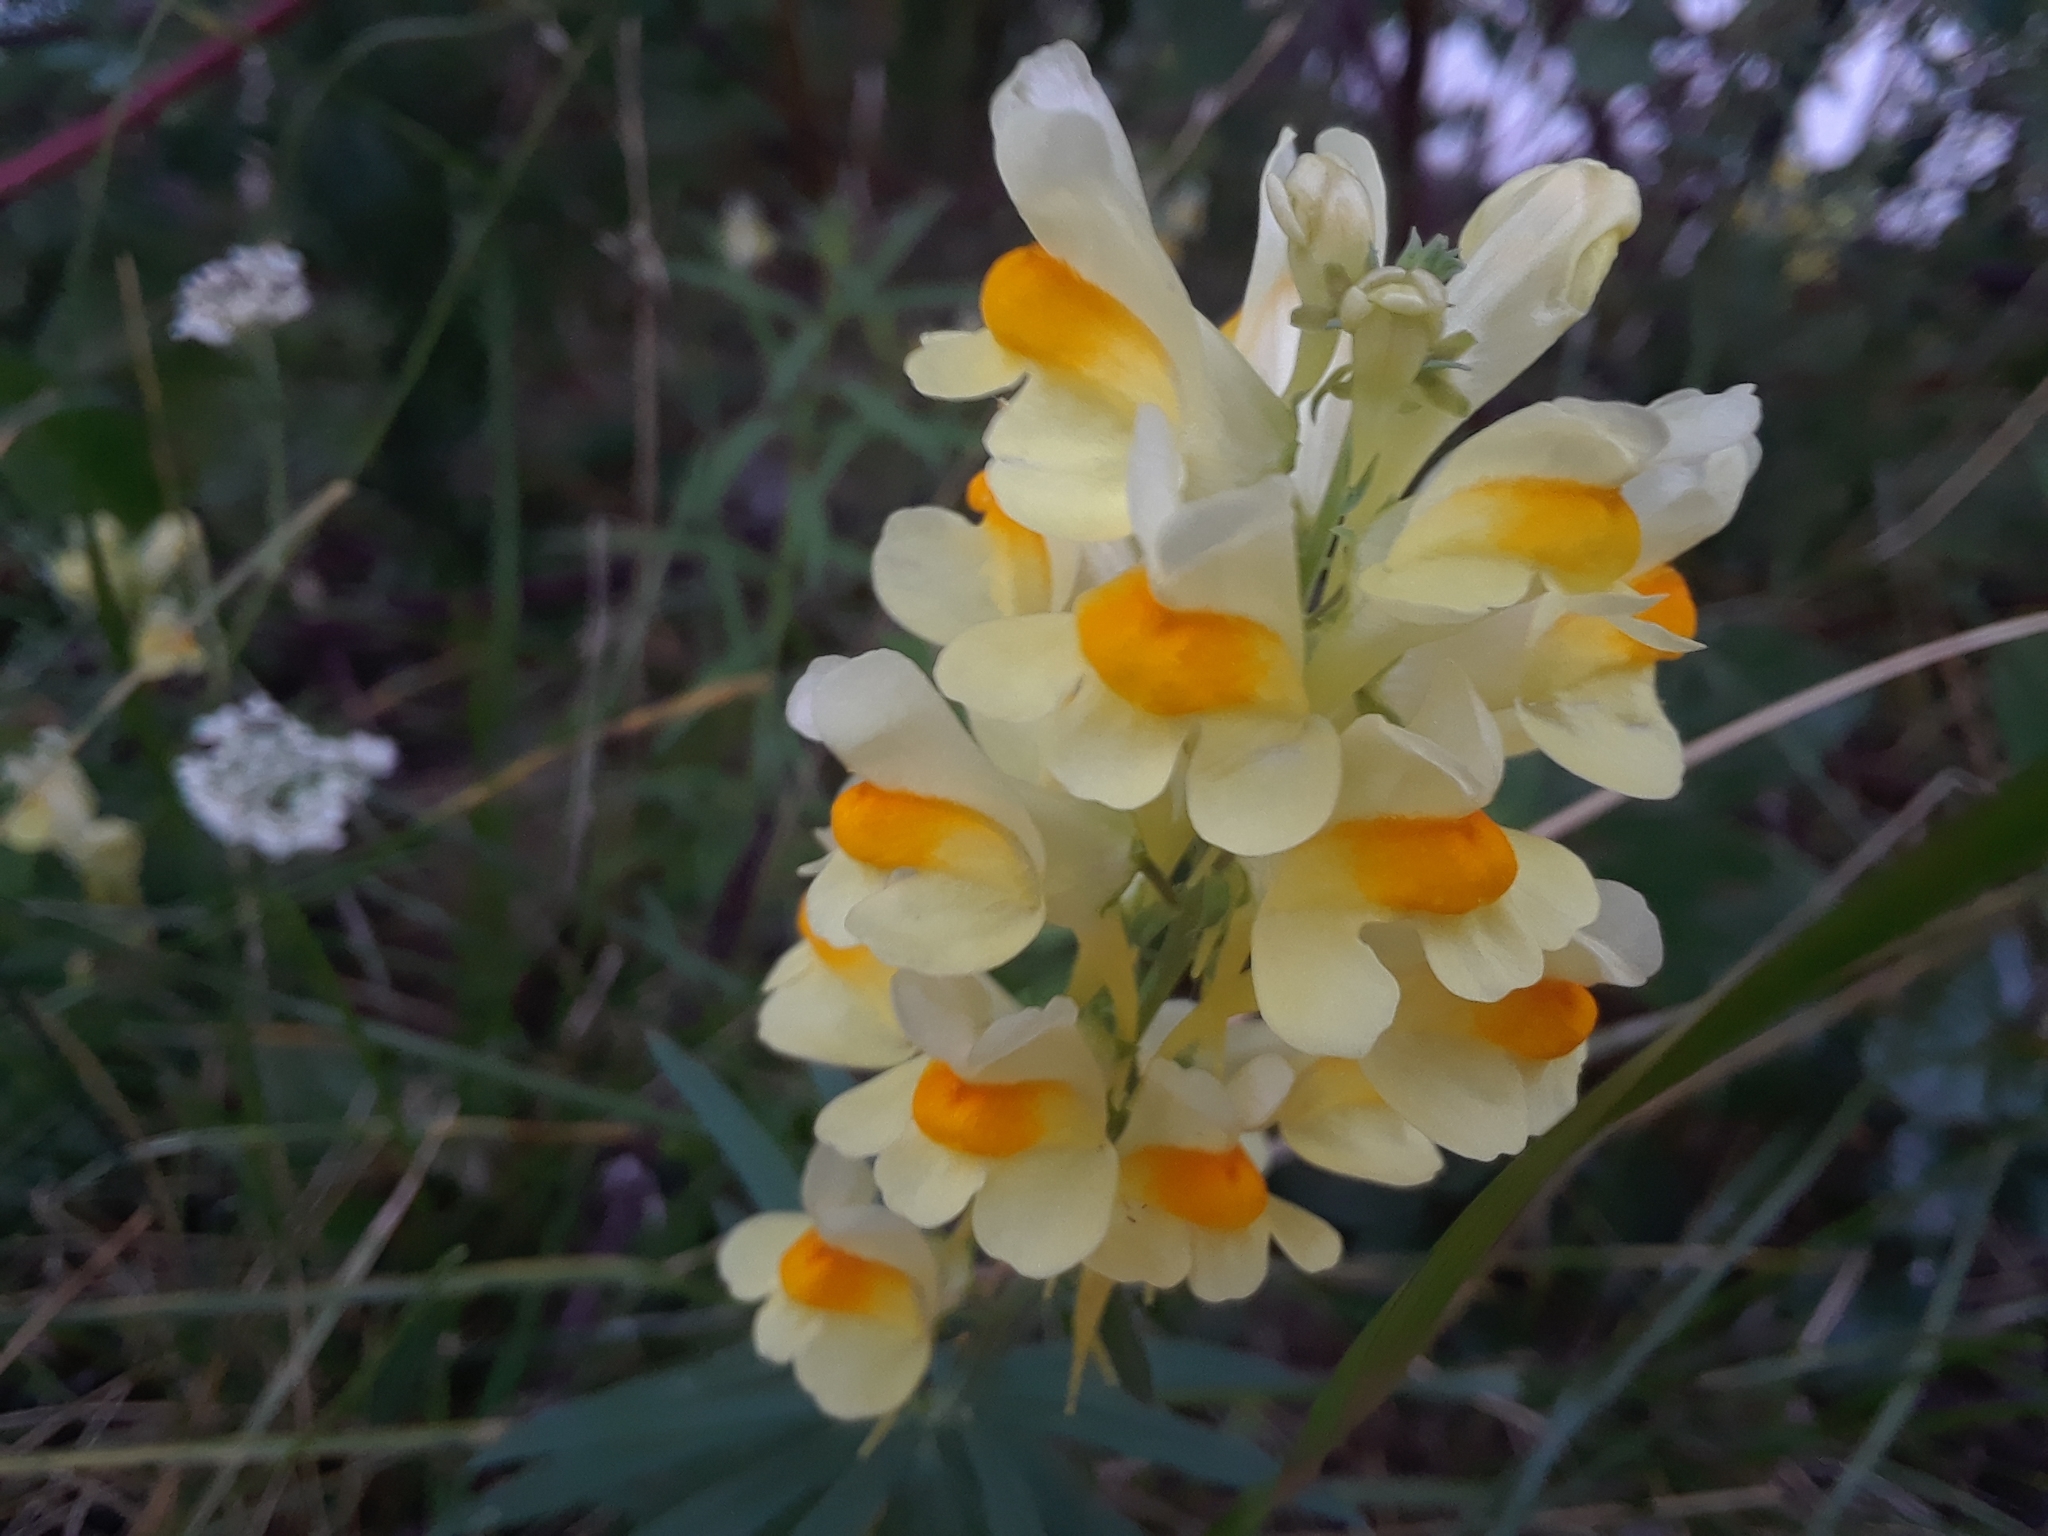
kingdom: Plantae
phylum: Tracheophyta
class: Magnoliopsida
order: Lamiales
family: Plantaginaceae
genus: Linaria
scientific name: Linaria vulgaris
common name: Butter and eggs
